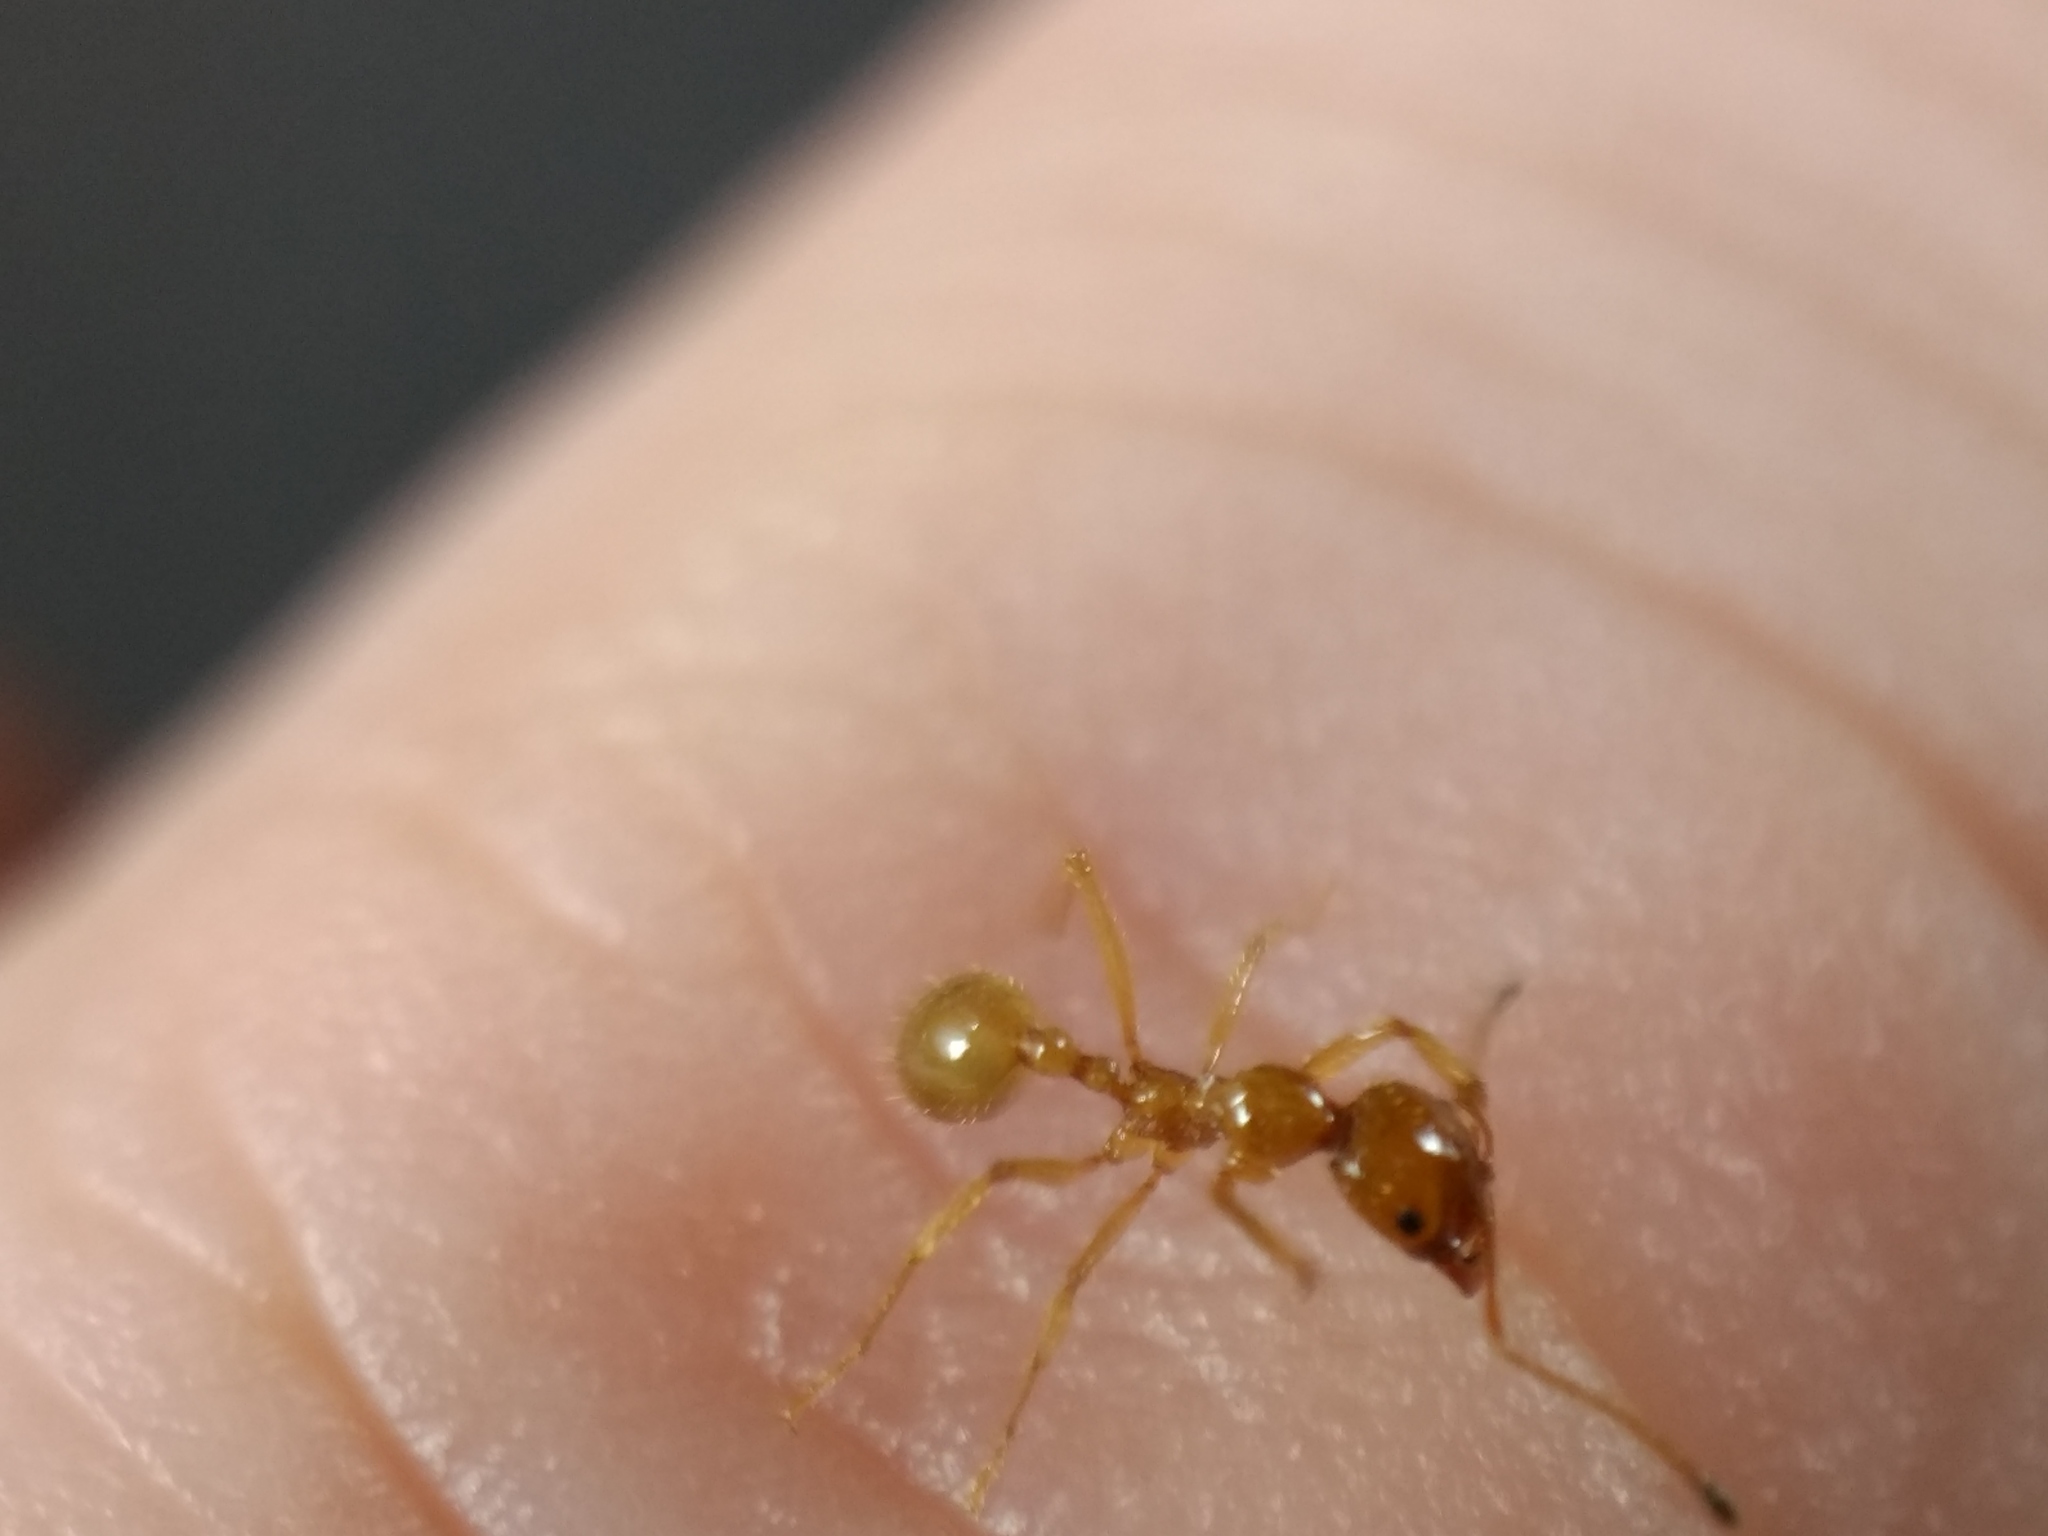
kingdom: Animalia
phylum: Arthropoda
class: Insecta
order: Hymenoptera
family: Formicidae
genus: Aphaenogaster
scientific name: Aphaenogaster pythia
